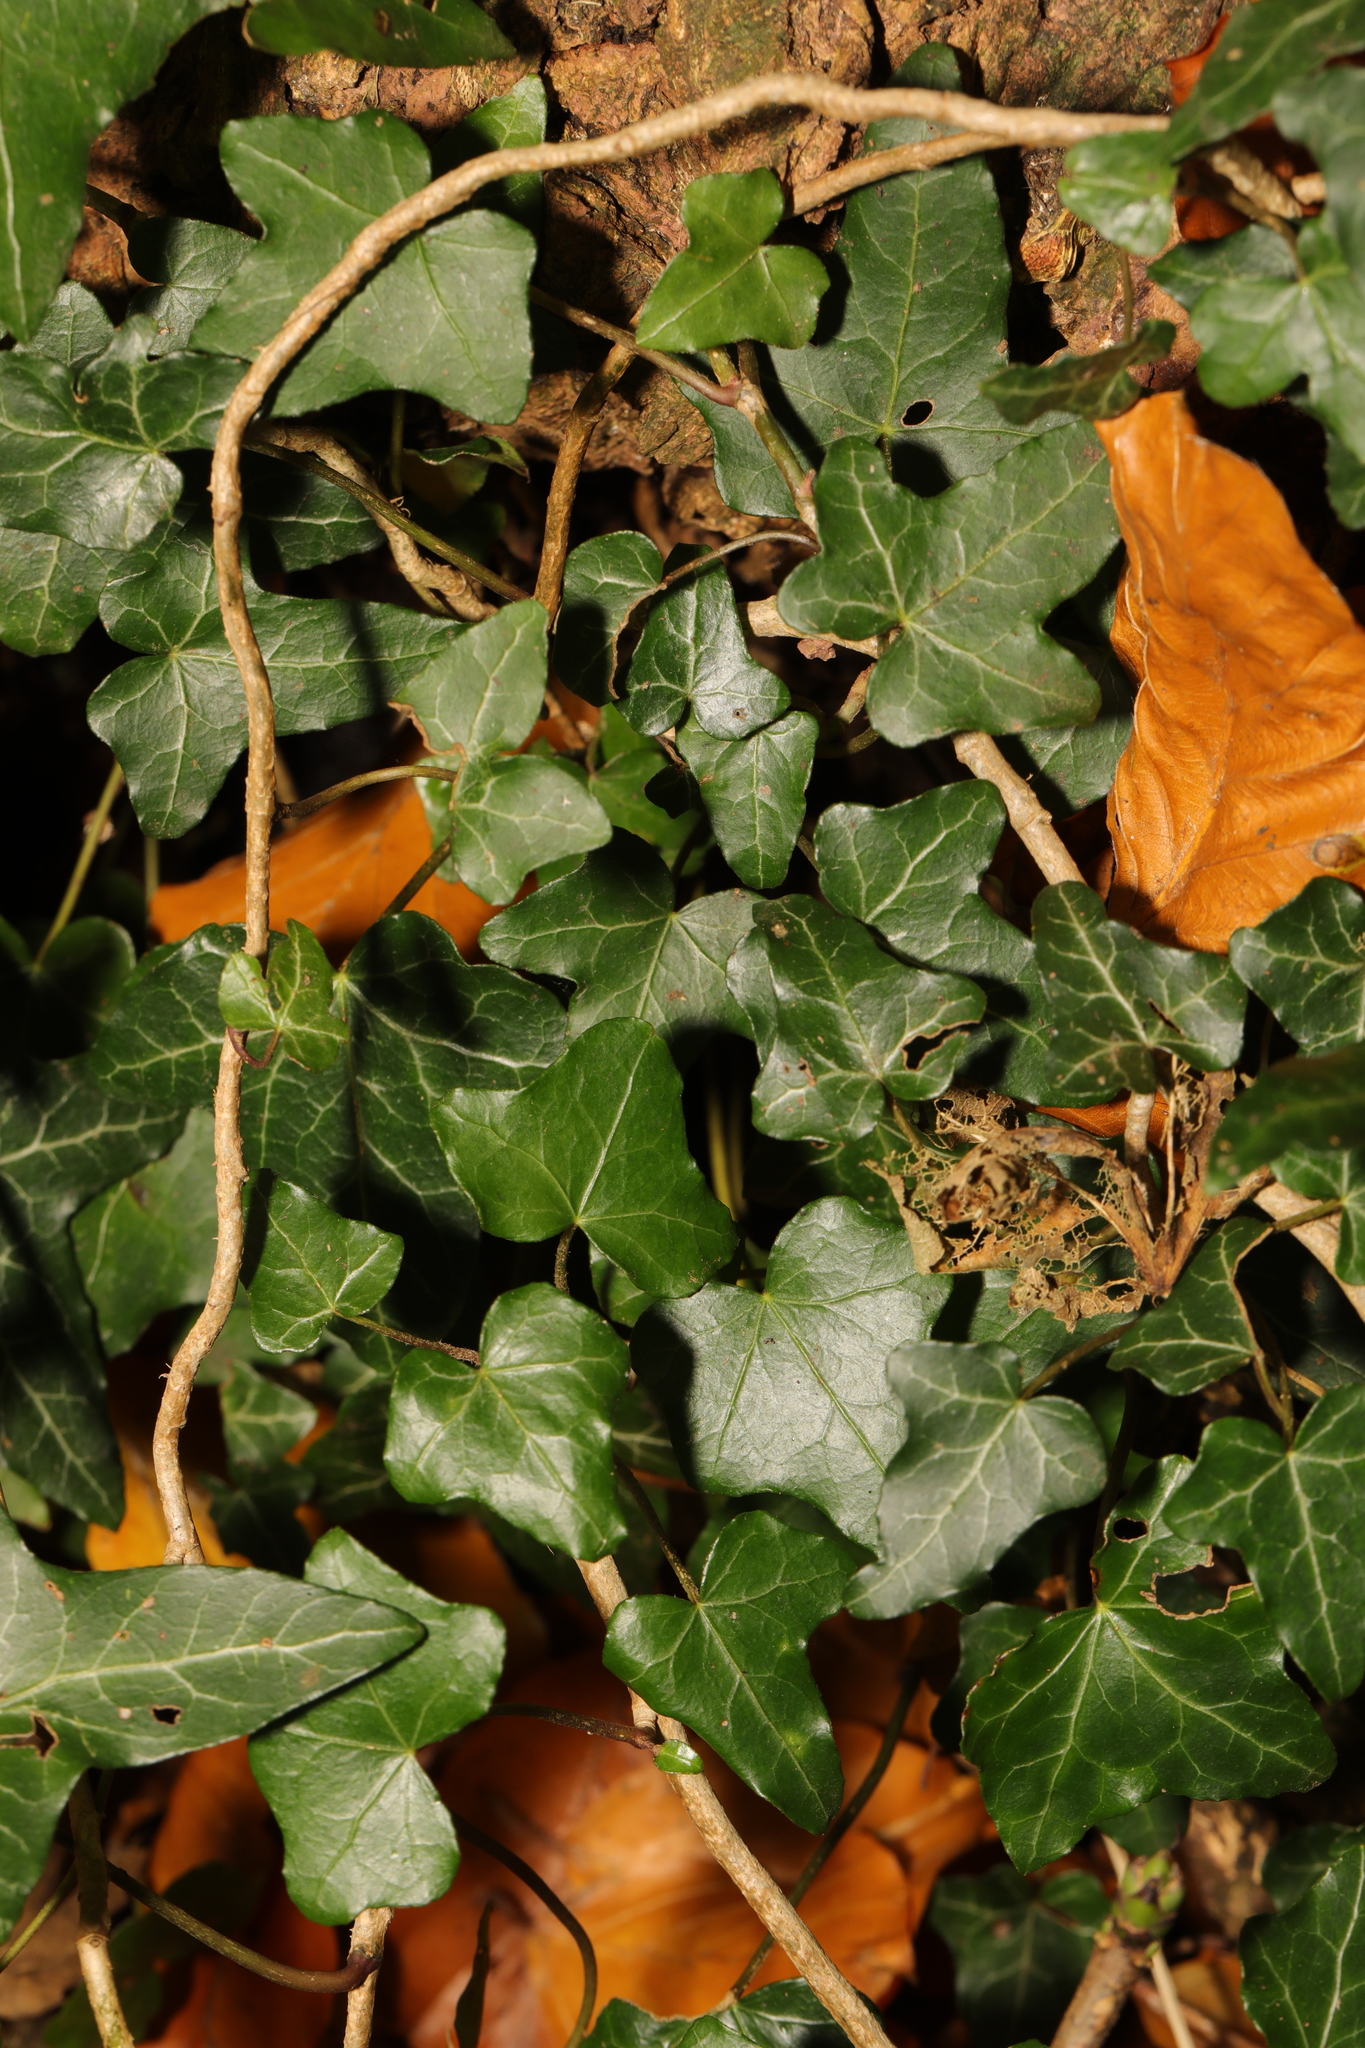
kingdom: Plantae
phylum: Tracheophyta
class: Magnoliopsida
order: Apiales
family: Araliaceae
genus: Hedera
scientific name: Hedera helix
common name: Ivy
